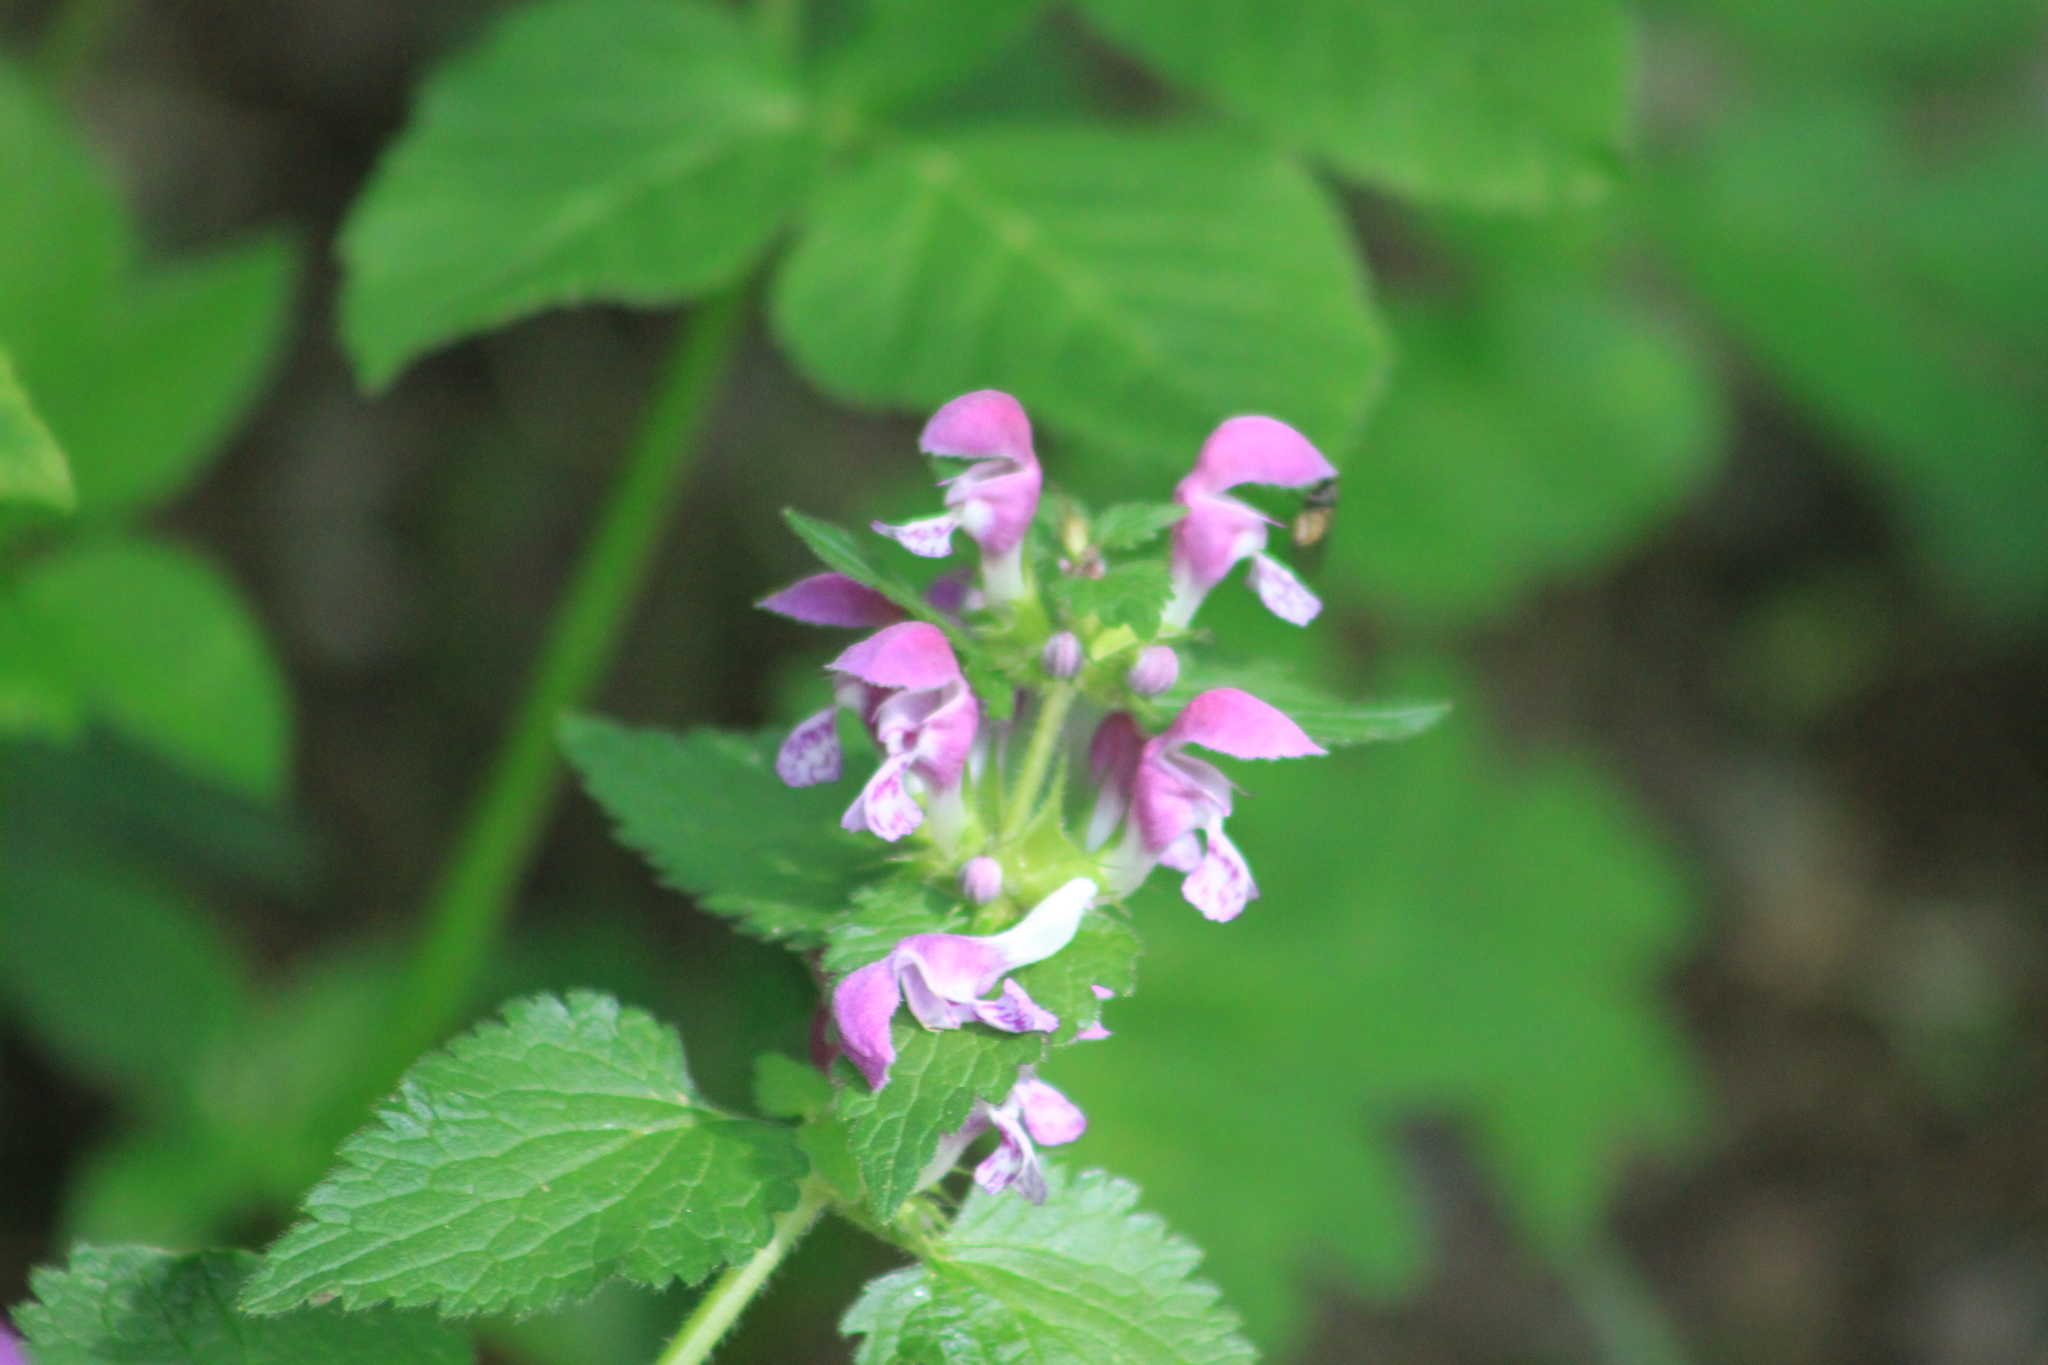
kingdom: Plantae
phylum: Tracheophyta
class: Magnoliopsida
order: Lamiales
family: Lamiaceae
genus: Lamium
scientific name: Lamium maculatum
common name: Spotted dead-nettle
